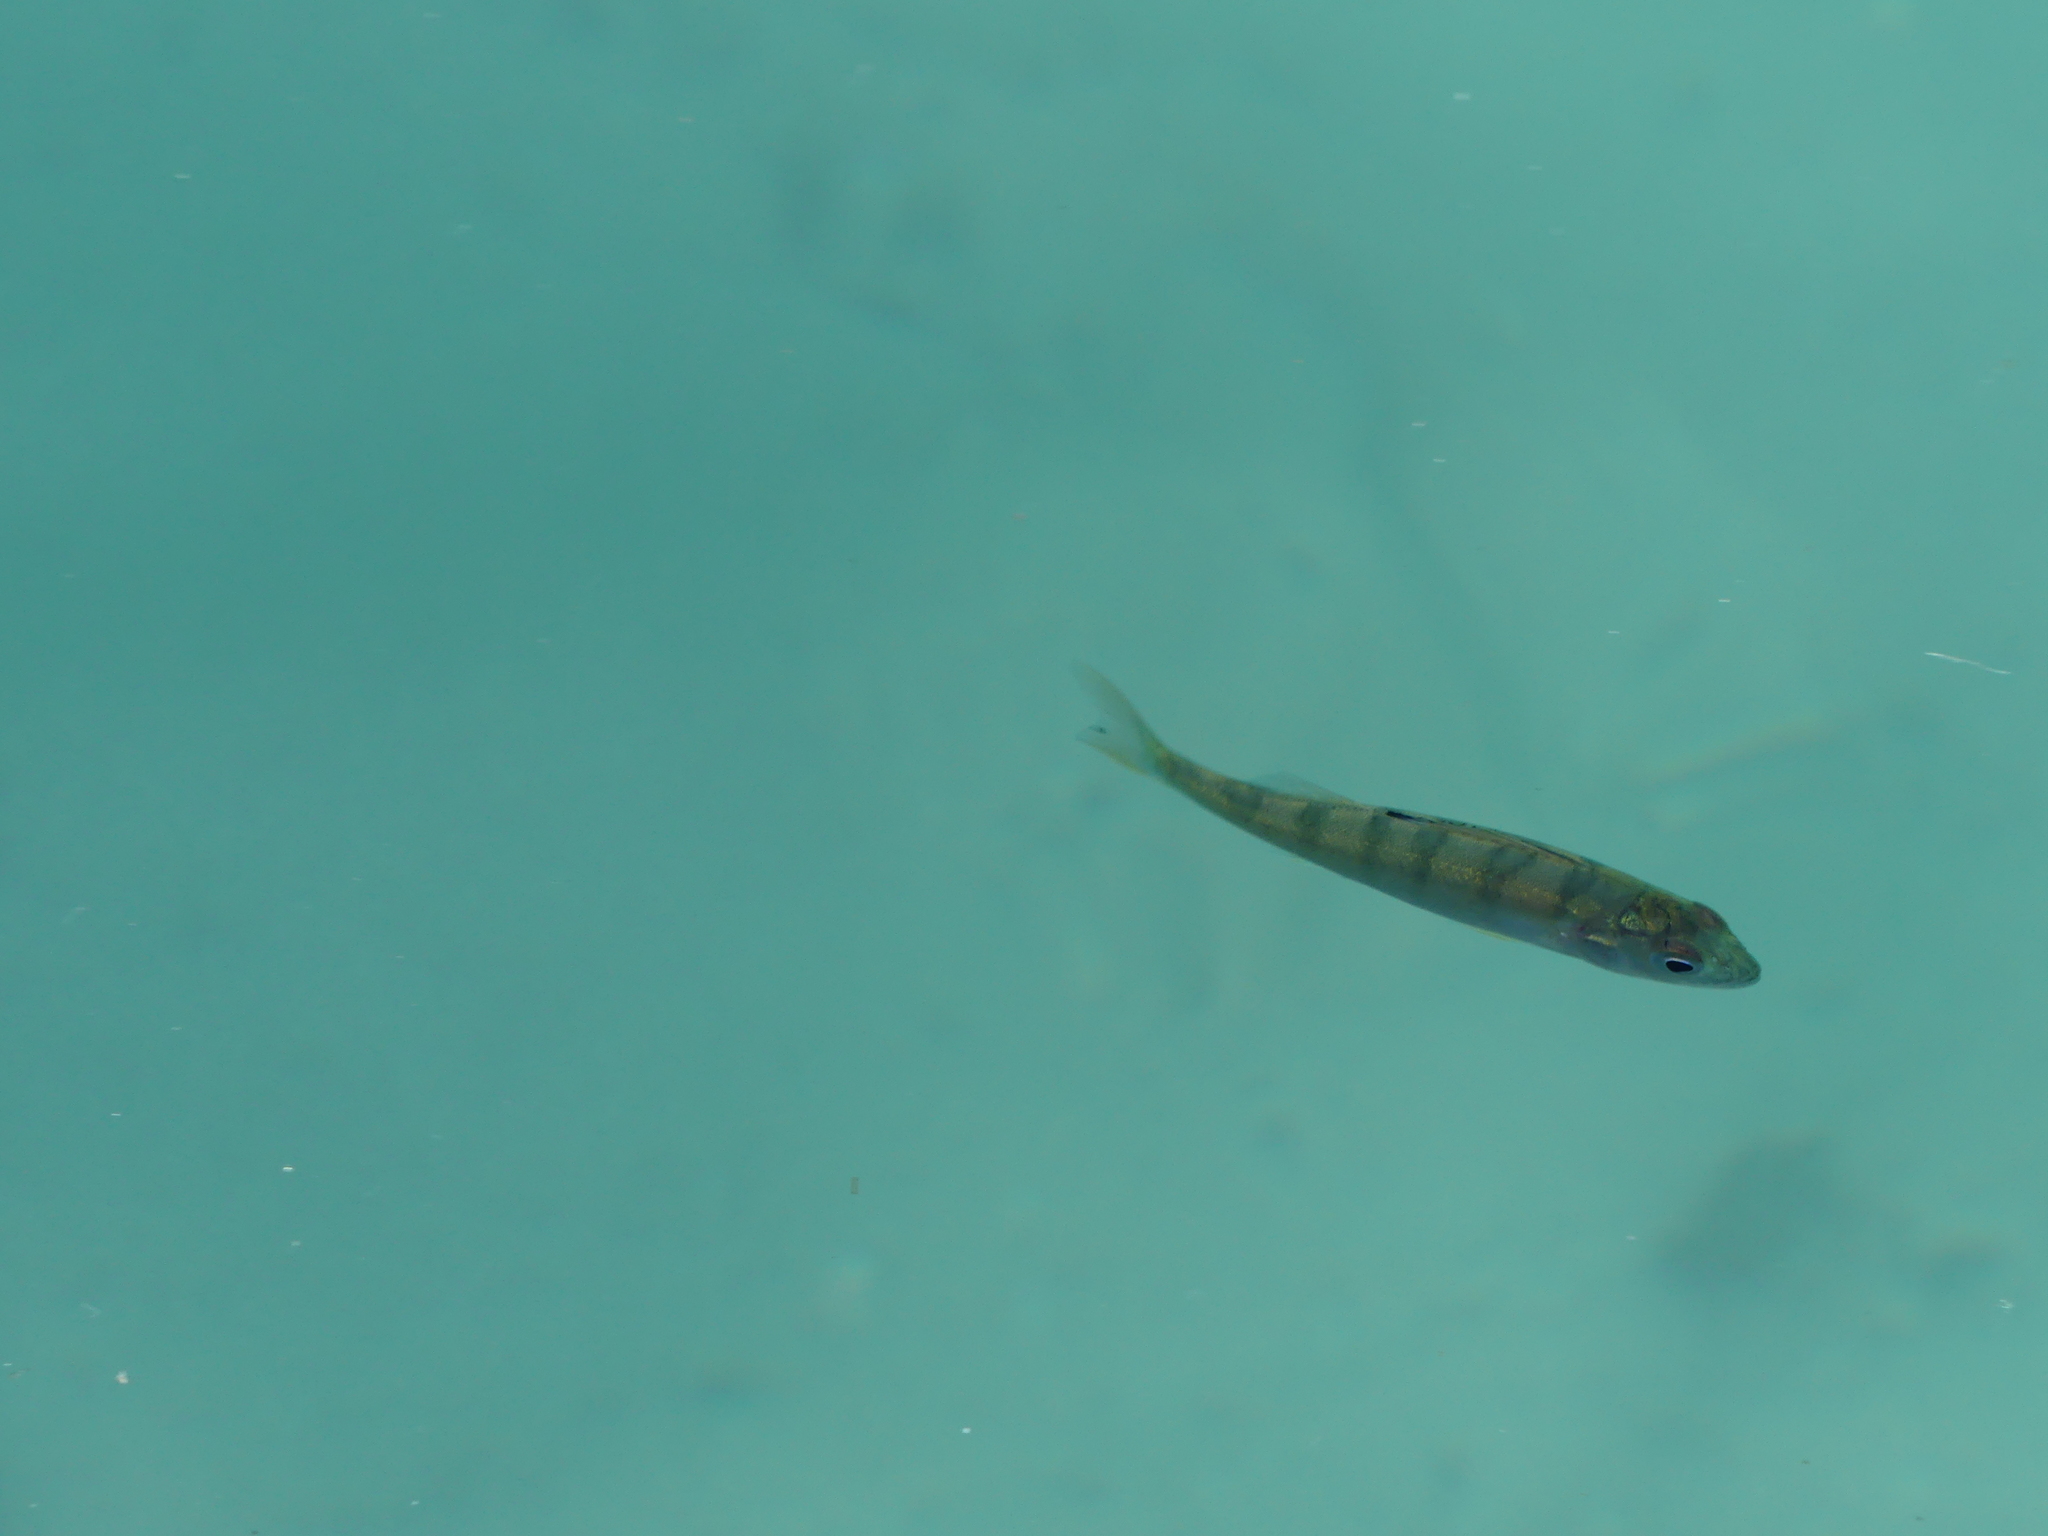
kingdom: Animalia
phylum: Chordata
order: Perciformes
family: Percidae
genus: Perca
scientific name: Perca fluviatilis
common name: Perch
